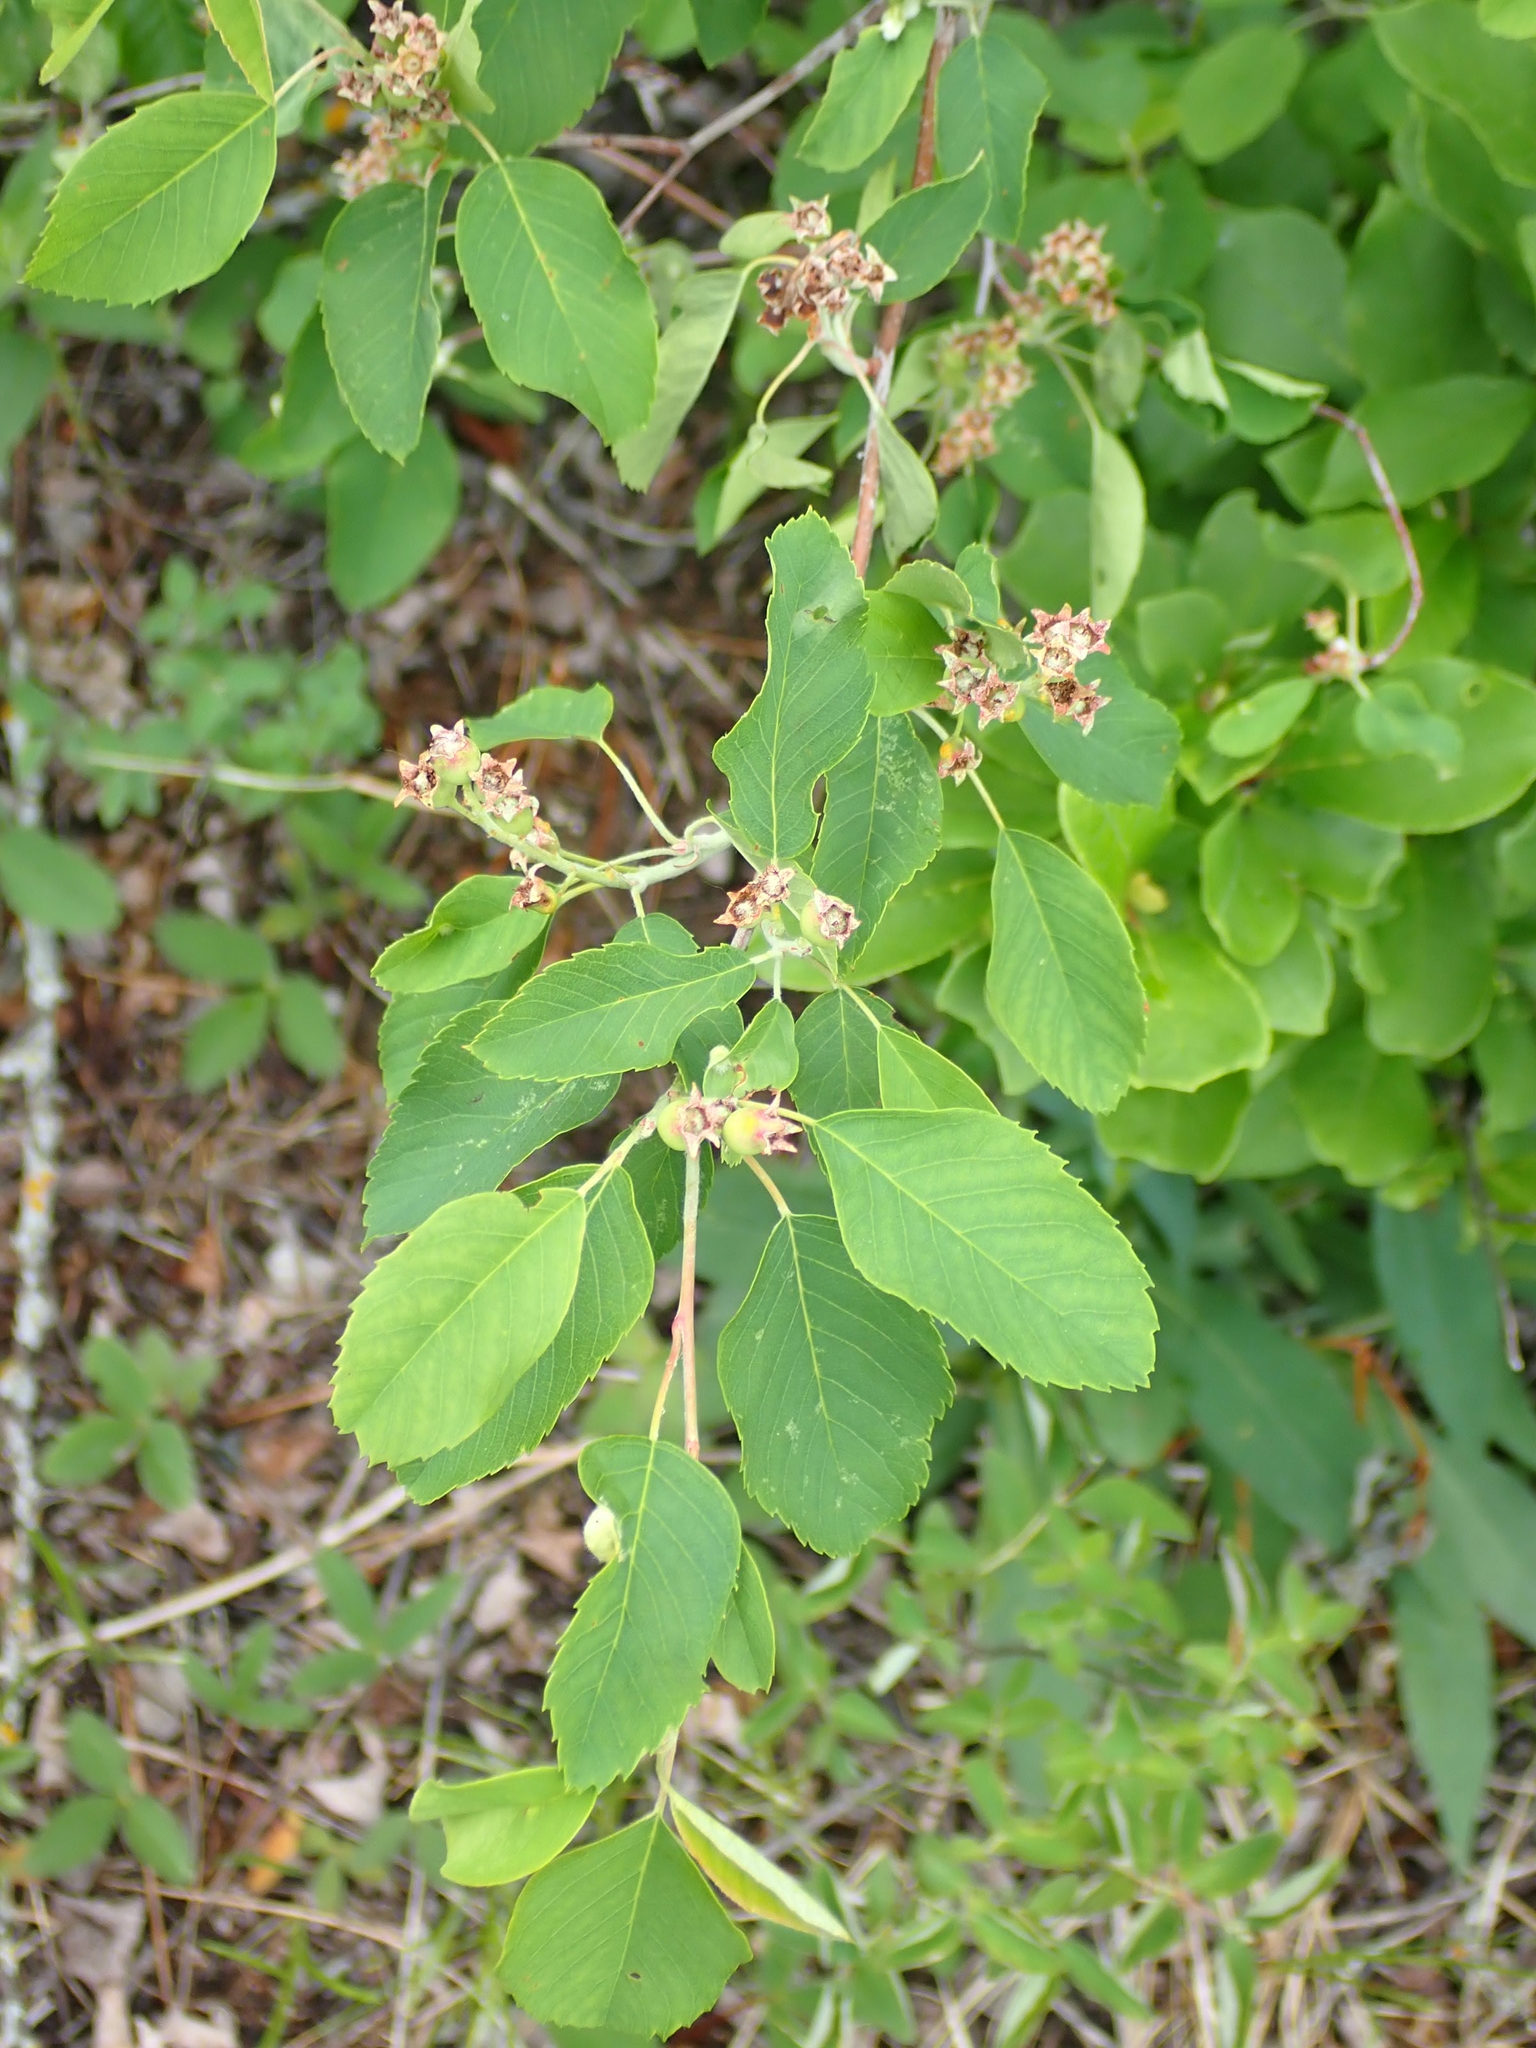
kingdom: Plantae
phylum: Tracheophyta
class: Magnoliopsida
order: Rosales
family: Rosaceae
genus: Amelanchier
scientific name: Amelanchier alnifolia
